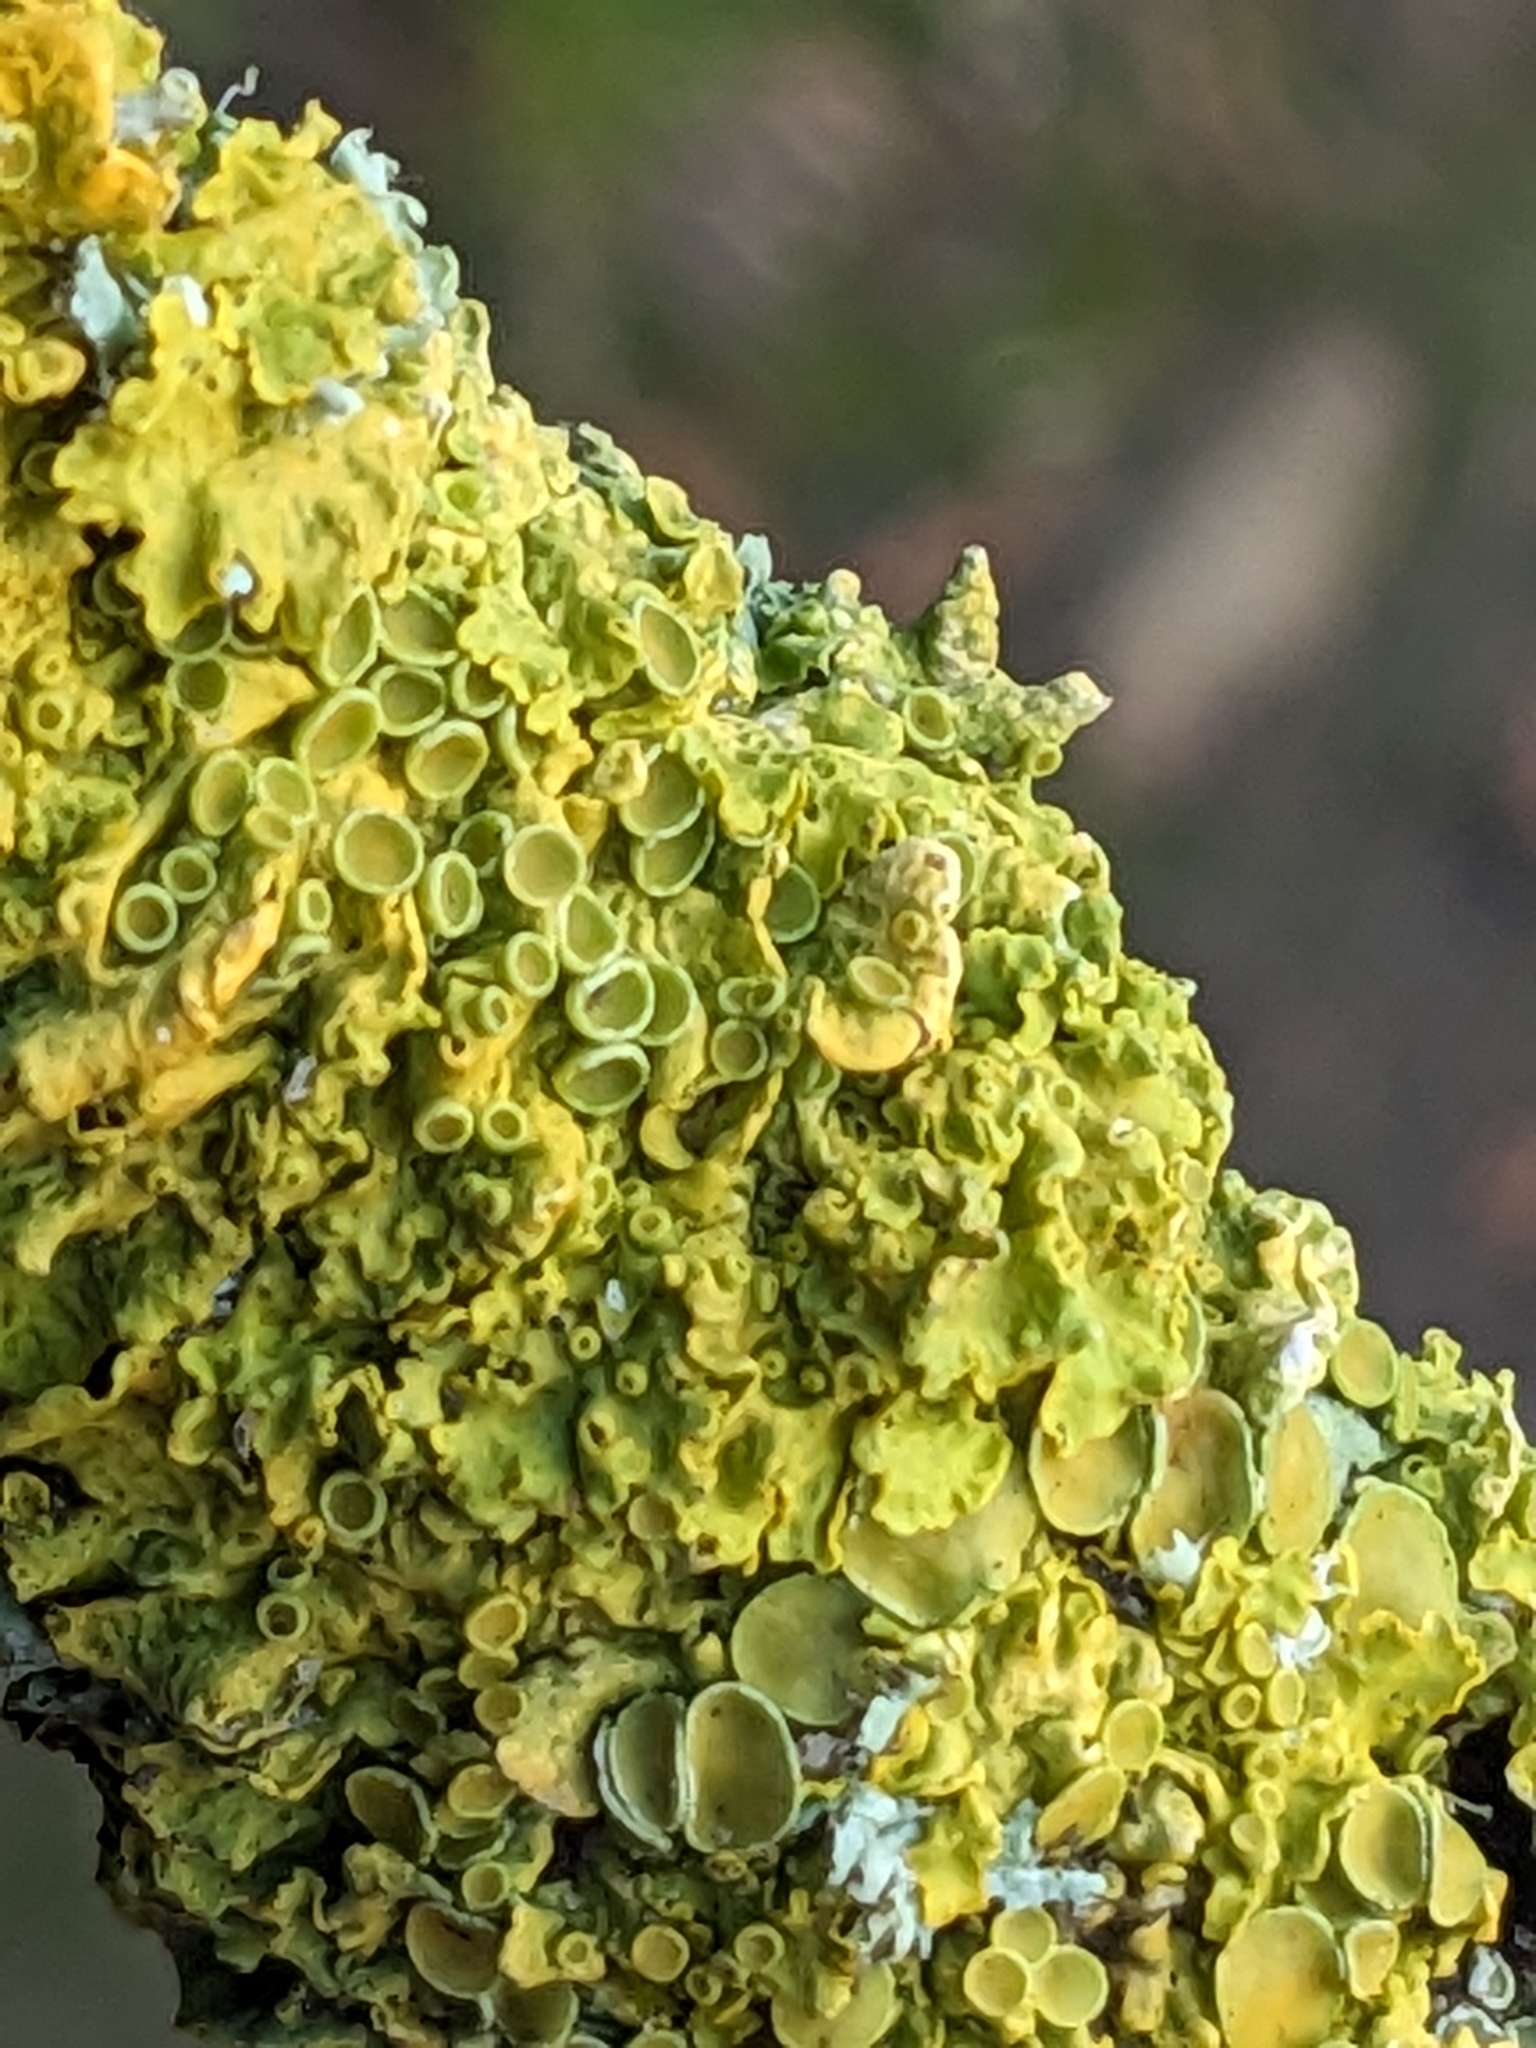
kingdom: Fungi
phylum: Ascomycota
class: Lecanoromycetes
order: Teloschistales
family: Teloschistaceae
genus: Xanthoria
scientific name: Xanthoria parietina
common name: Common orange lichen
